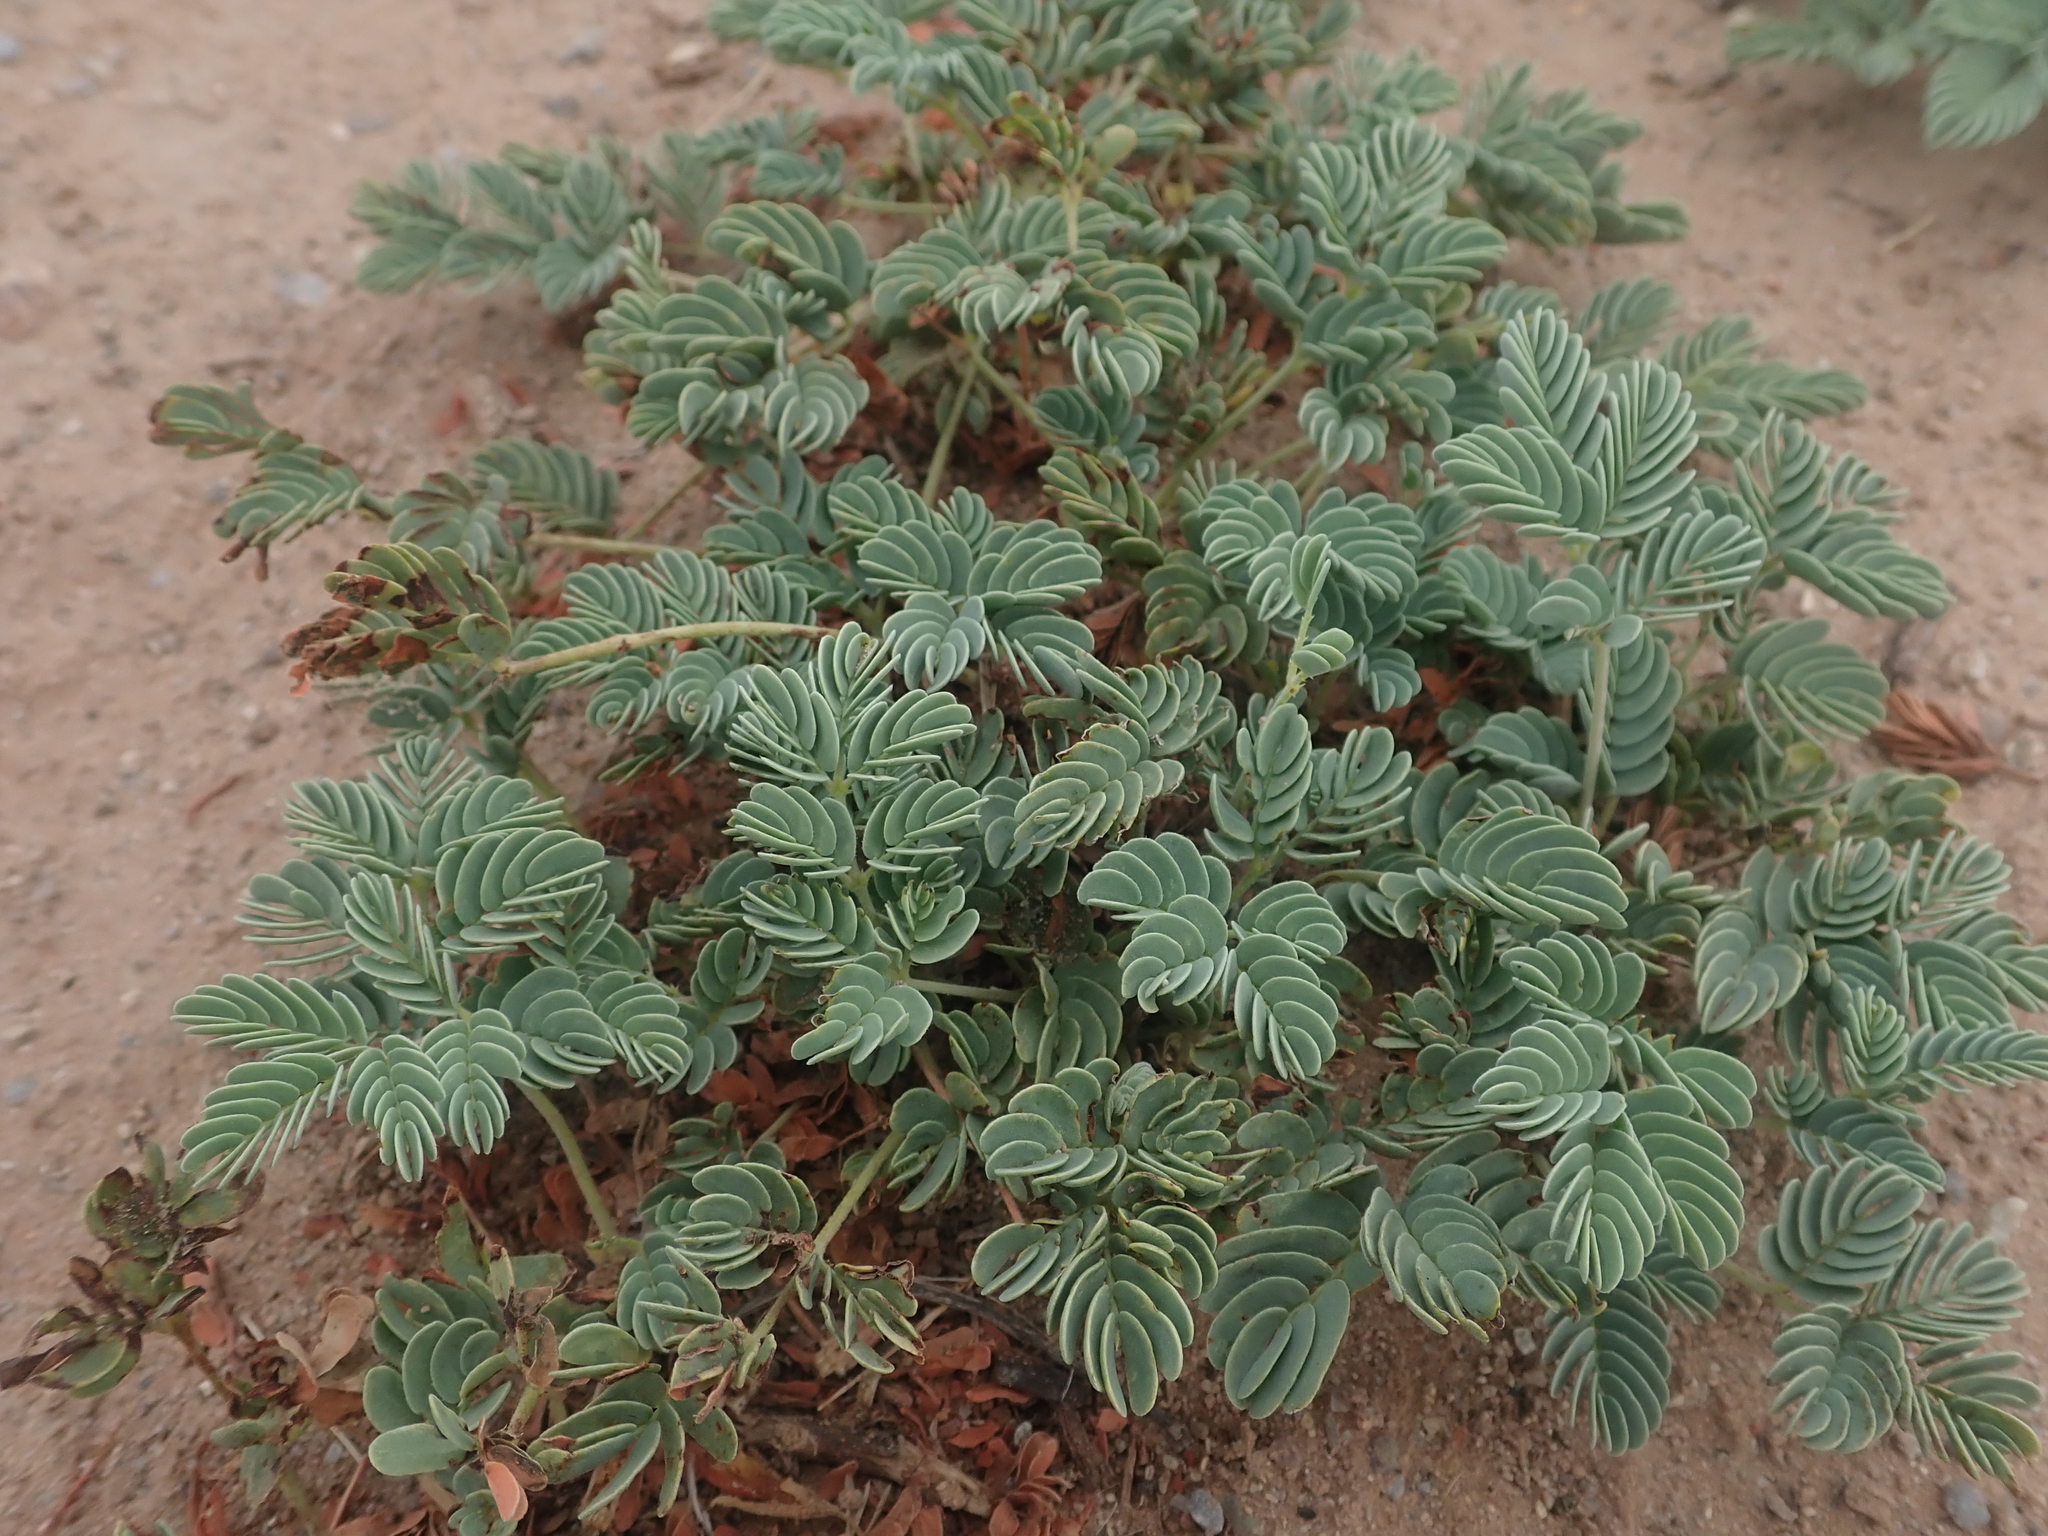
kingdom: Plantae
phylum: Tracheophyta
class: Magnoliopsida
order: Fabales
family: Fabaceae
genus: Hoffmannseggia
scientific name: Hoffmannseggia repens
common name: Creeping rush-pea
